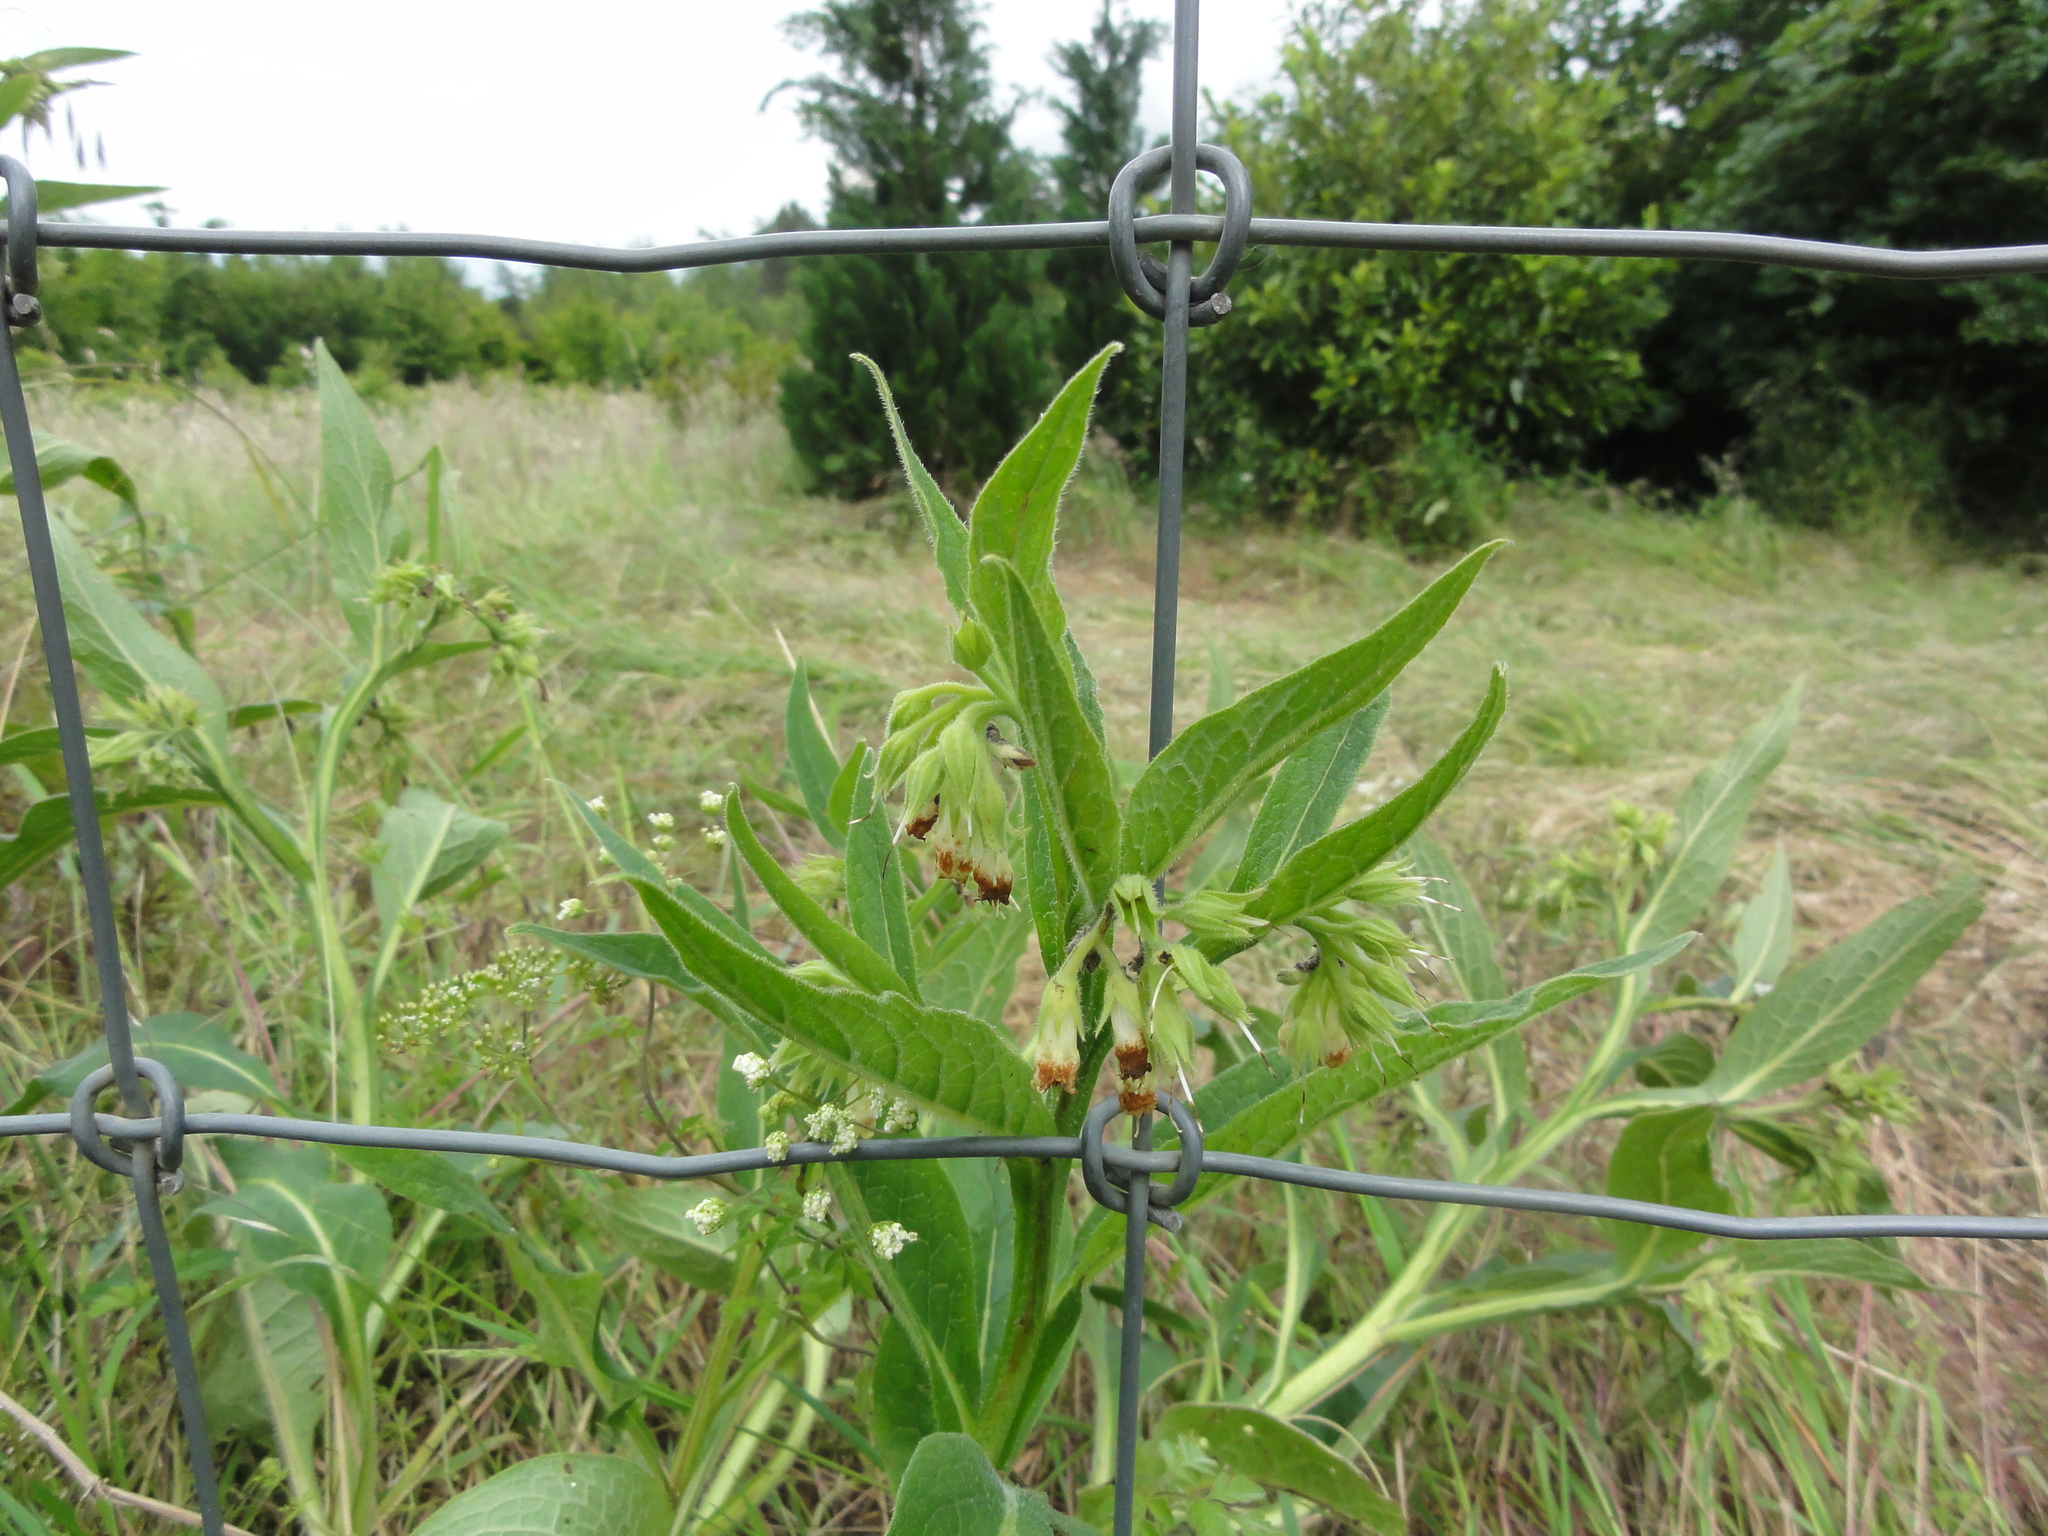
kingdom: Plantae
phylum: Tracheophyta
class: Magnoliopsida
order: Boraginales
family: Boraginaceae
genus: Symphytum
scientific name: Symphytum officinale
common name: Common comfrey
